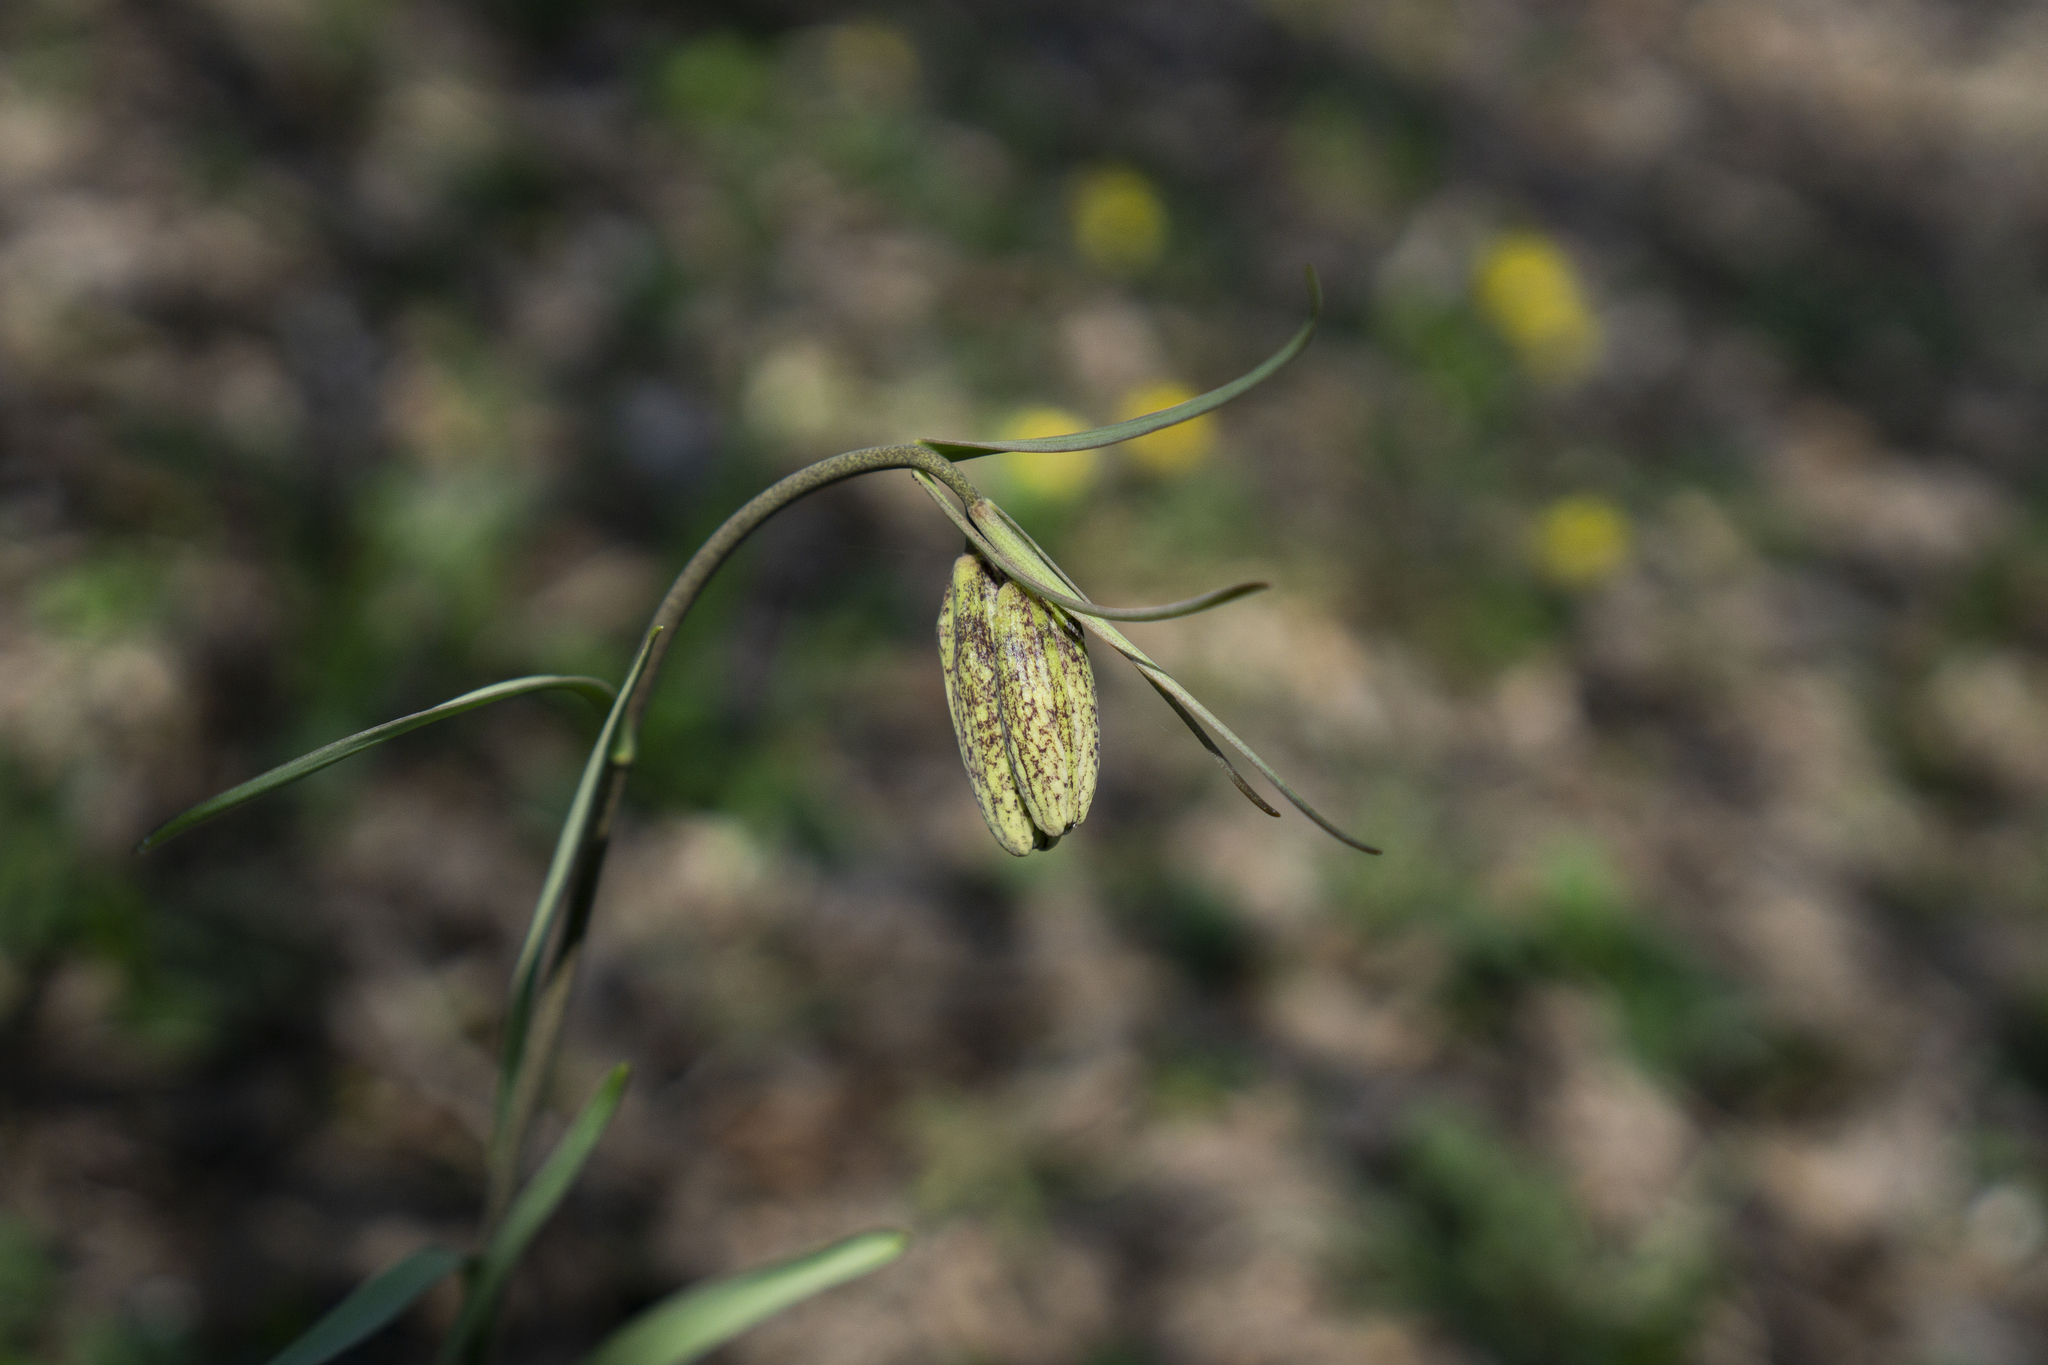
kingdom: Plantae
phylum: Tracheophyta
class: Liliopsida
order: Liliales
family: Liliaceae
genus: Fritillaria
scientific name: Fritillaria montana
